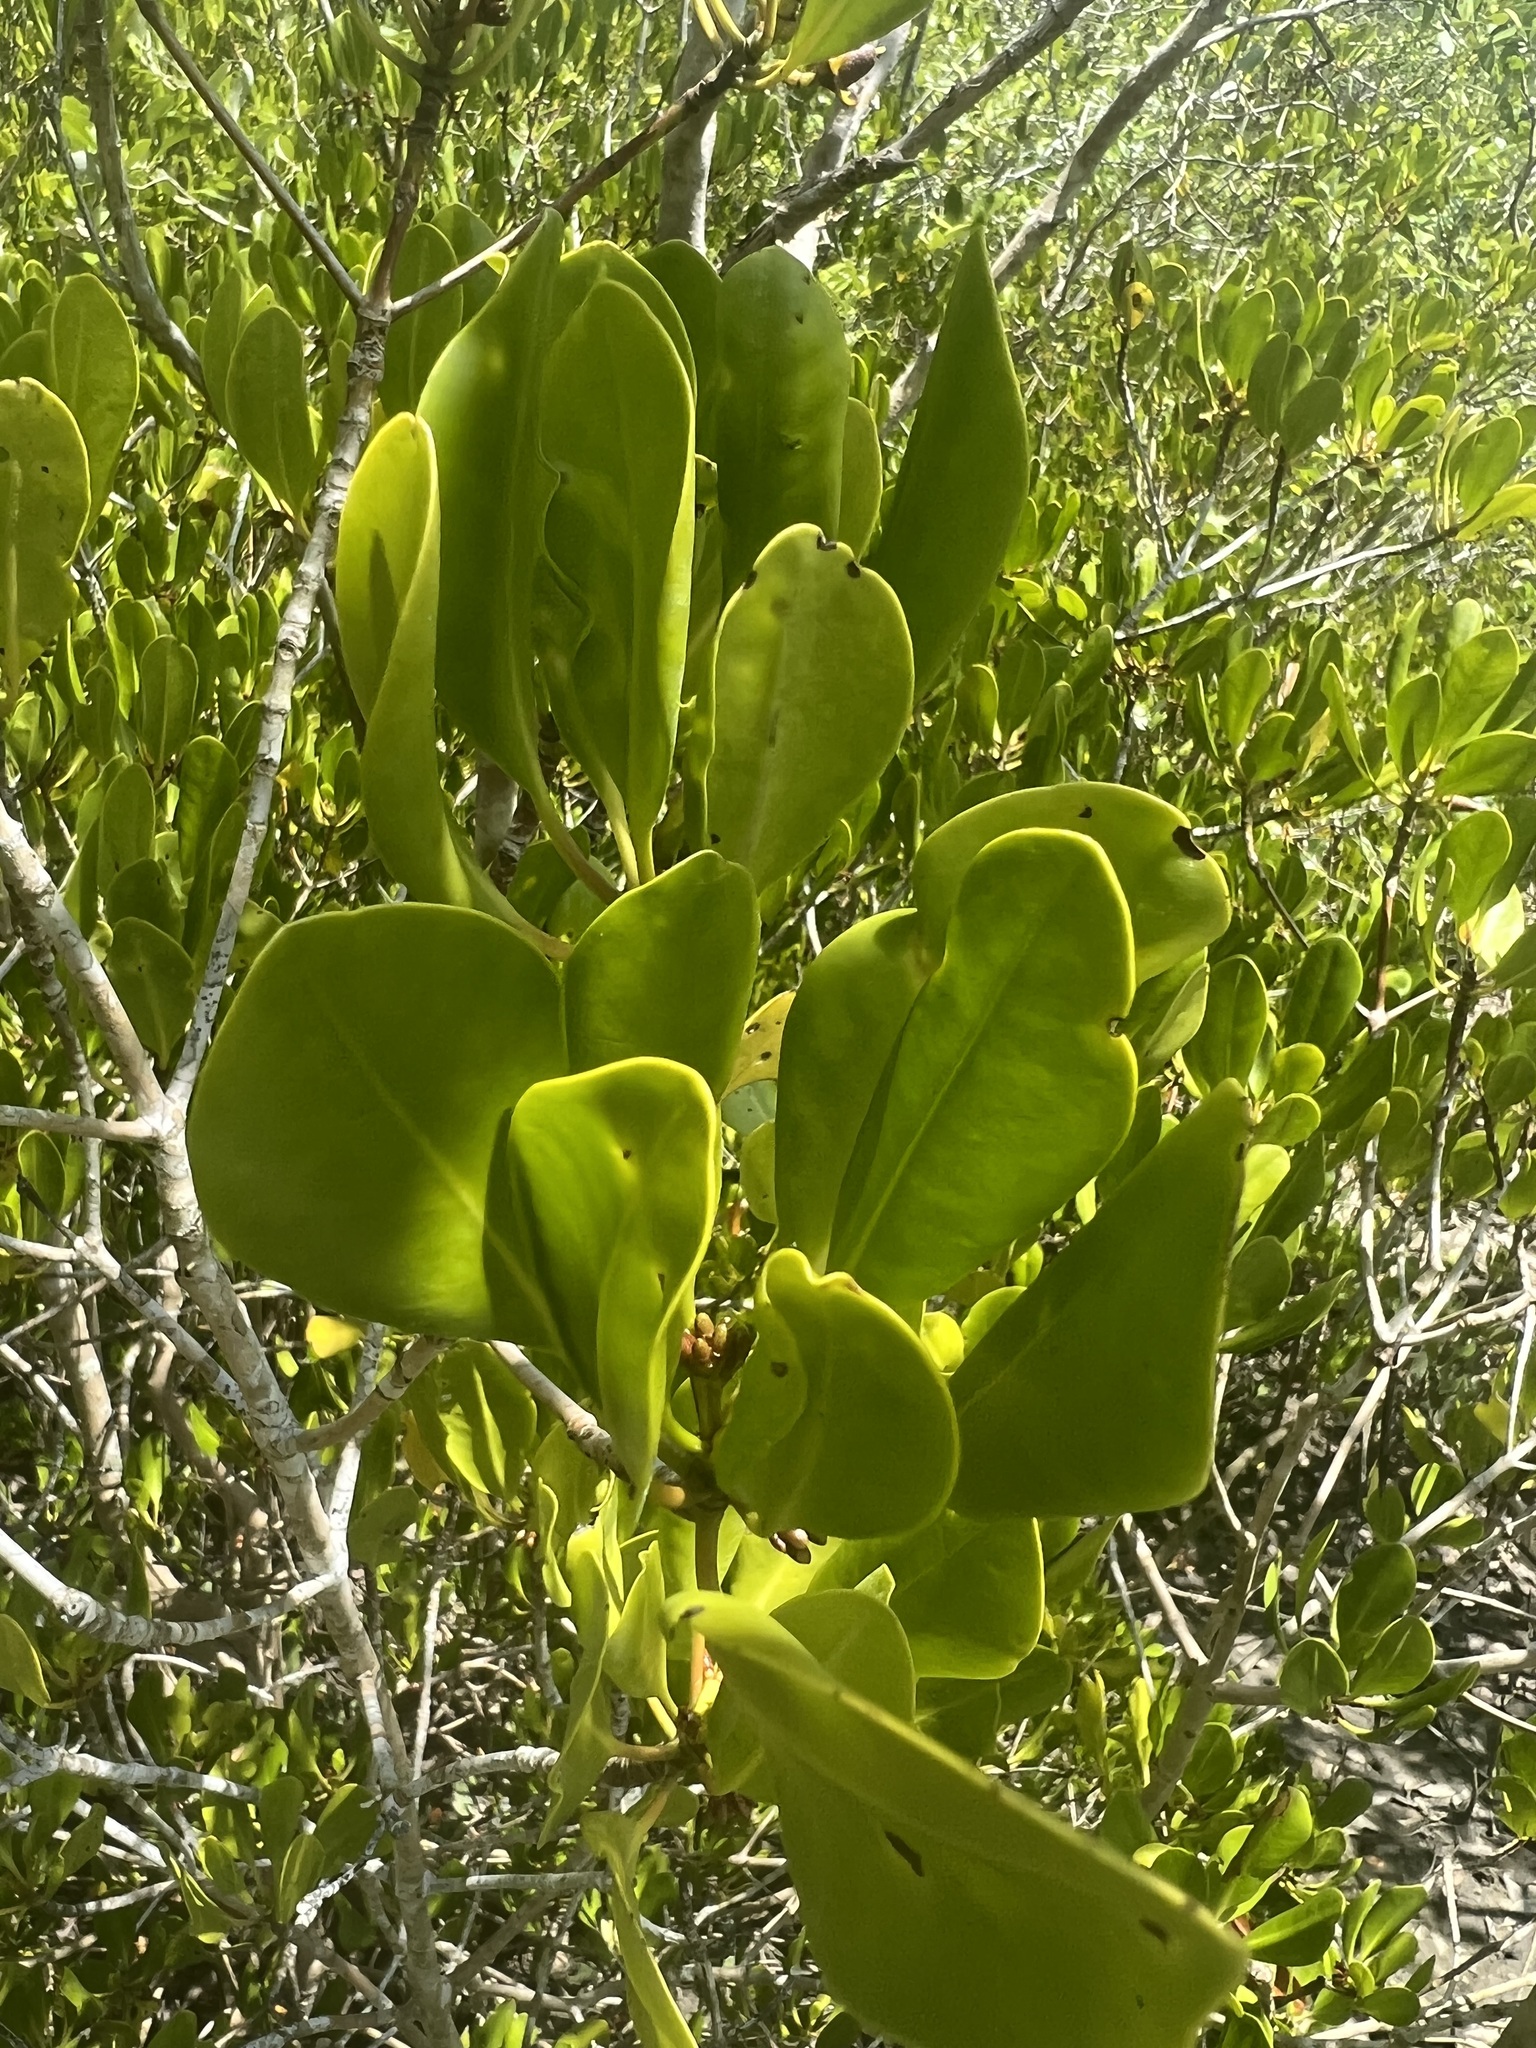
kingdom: Plantae
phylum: Tracheophyta
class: Magnoliopsida
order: Malpighiales
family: Rhizophoraceae
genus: Ceriops
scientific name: Ceriops australis
